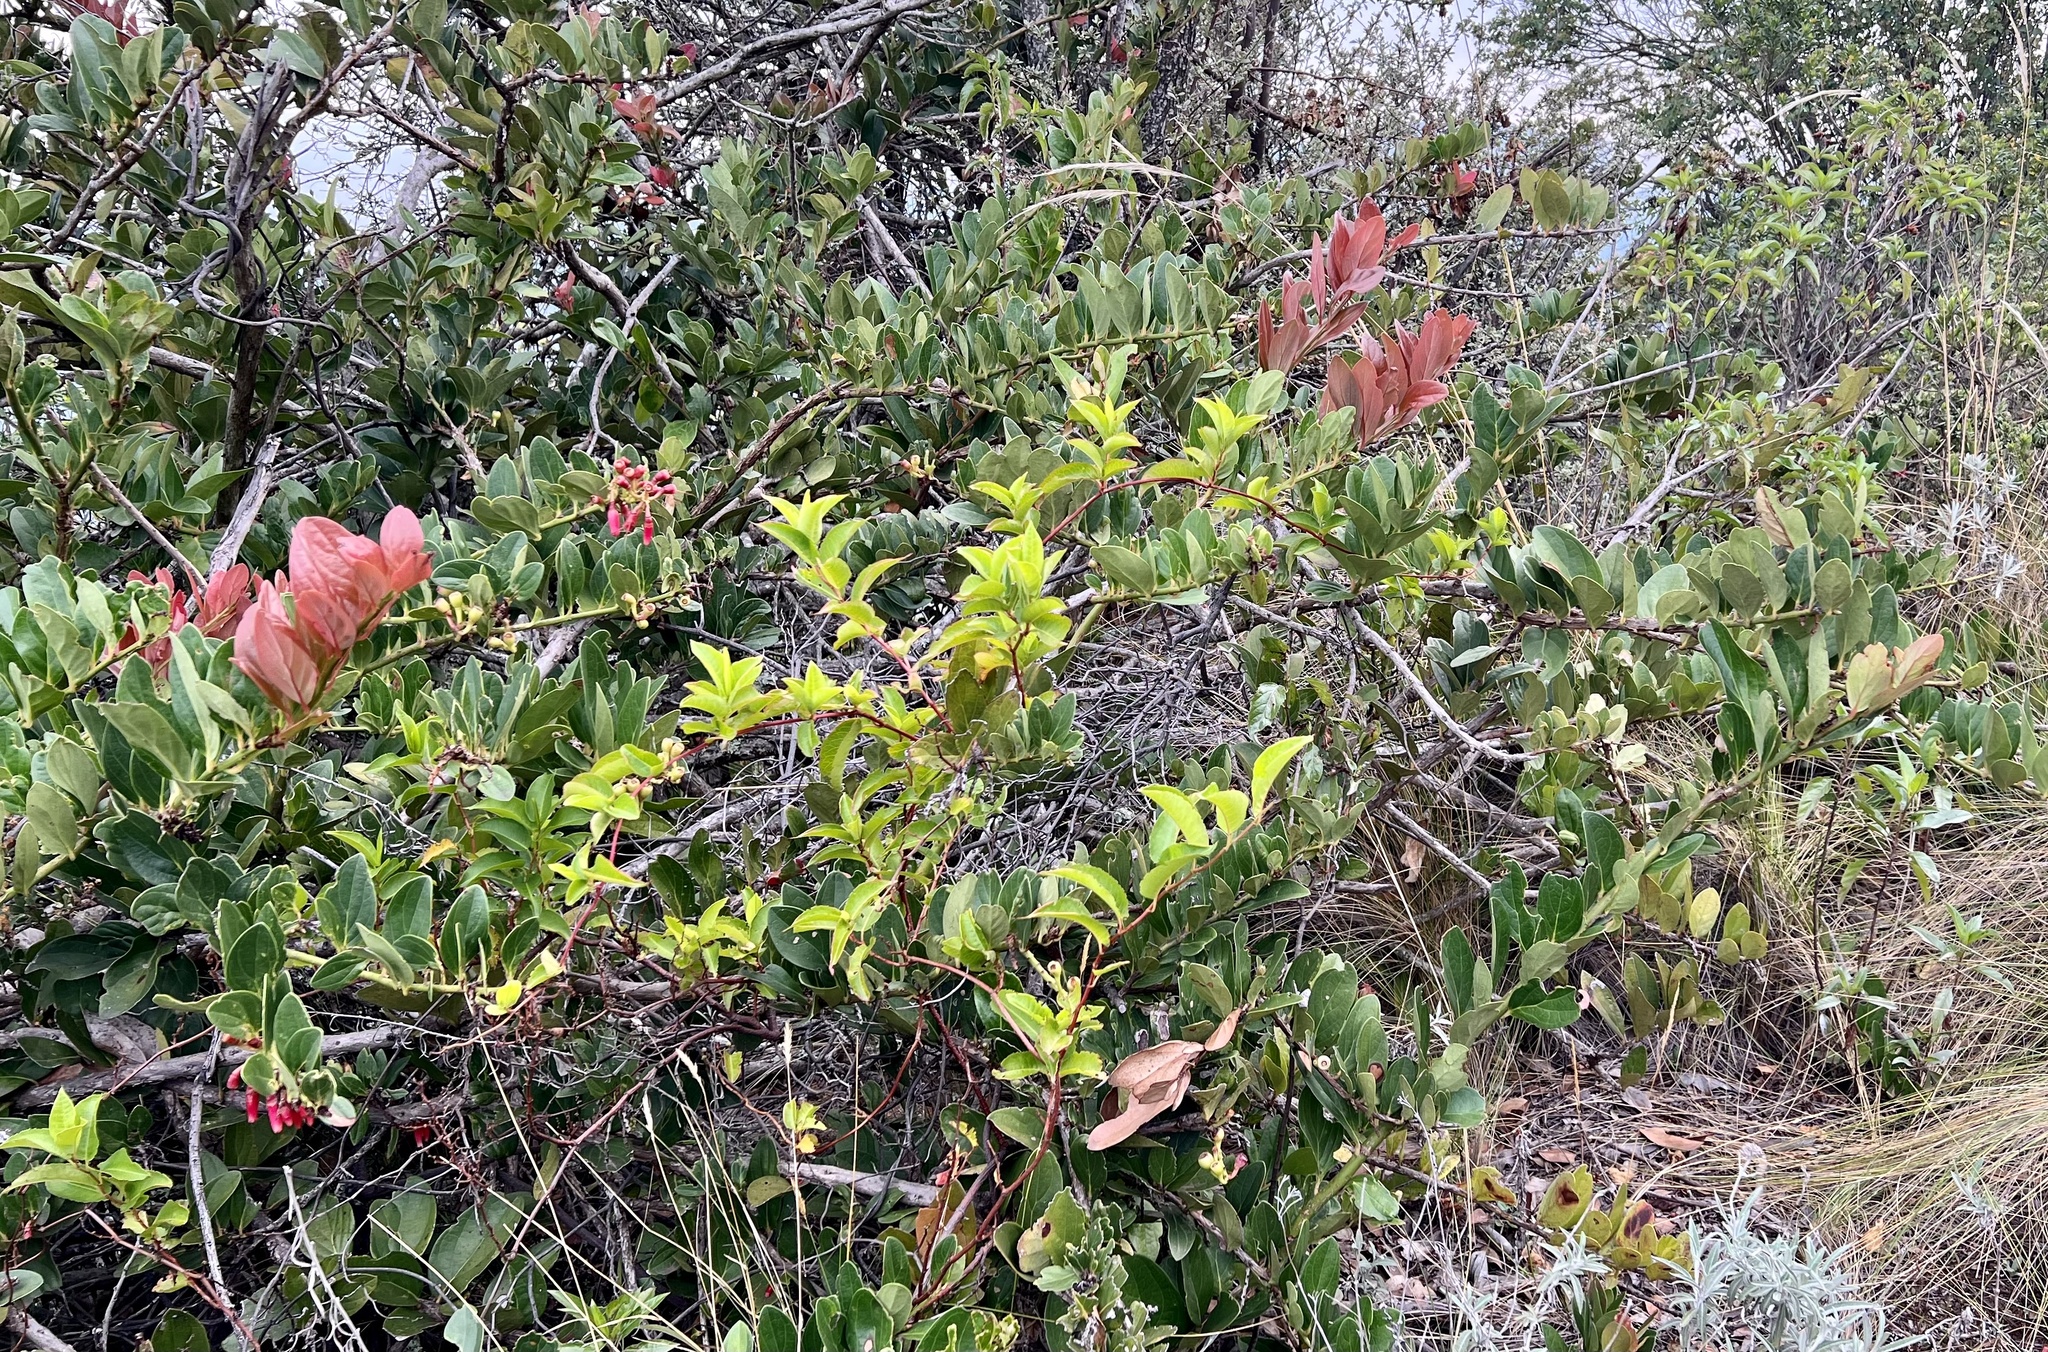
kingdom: Plantae
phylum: Tracheophyta
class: Magnoliopsida
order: Ericales
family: Ericaceae
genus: Macleania
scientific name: Macleania rupestris
